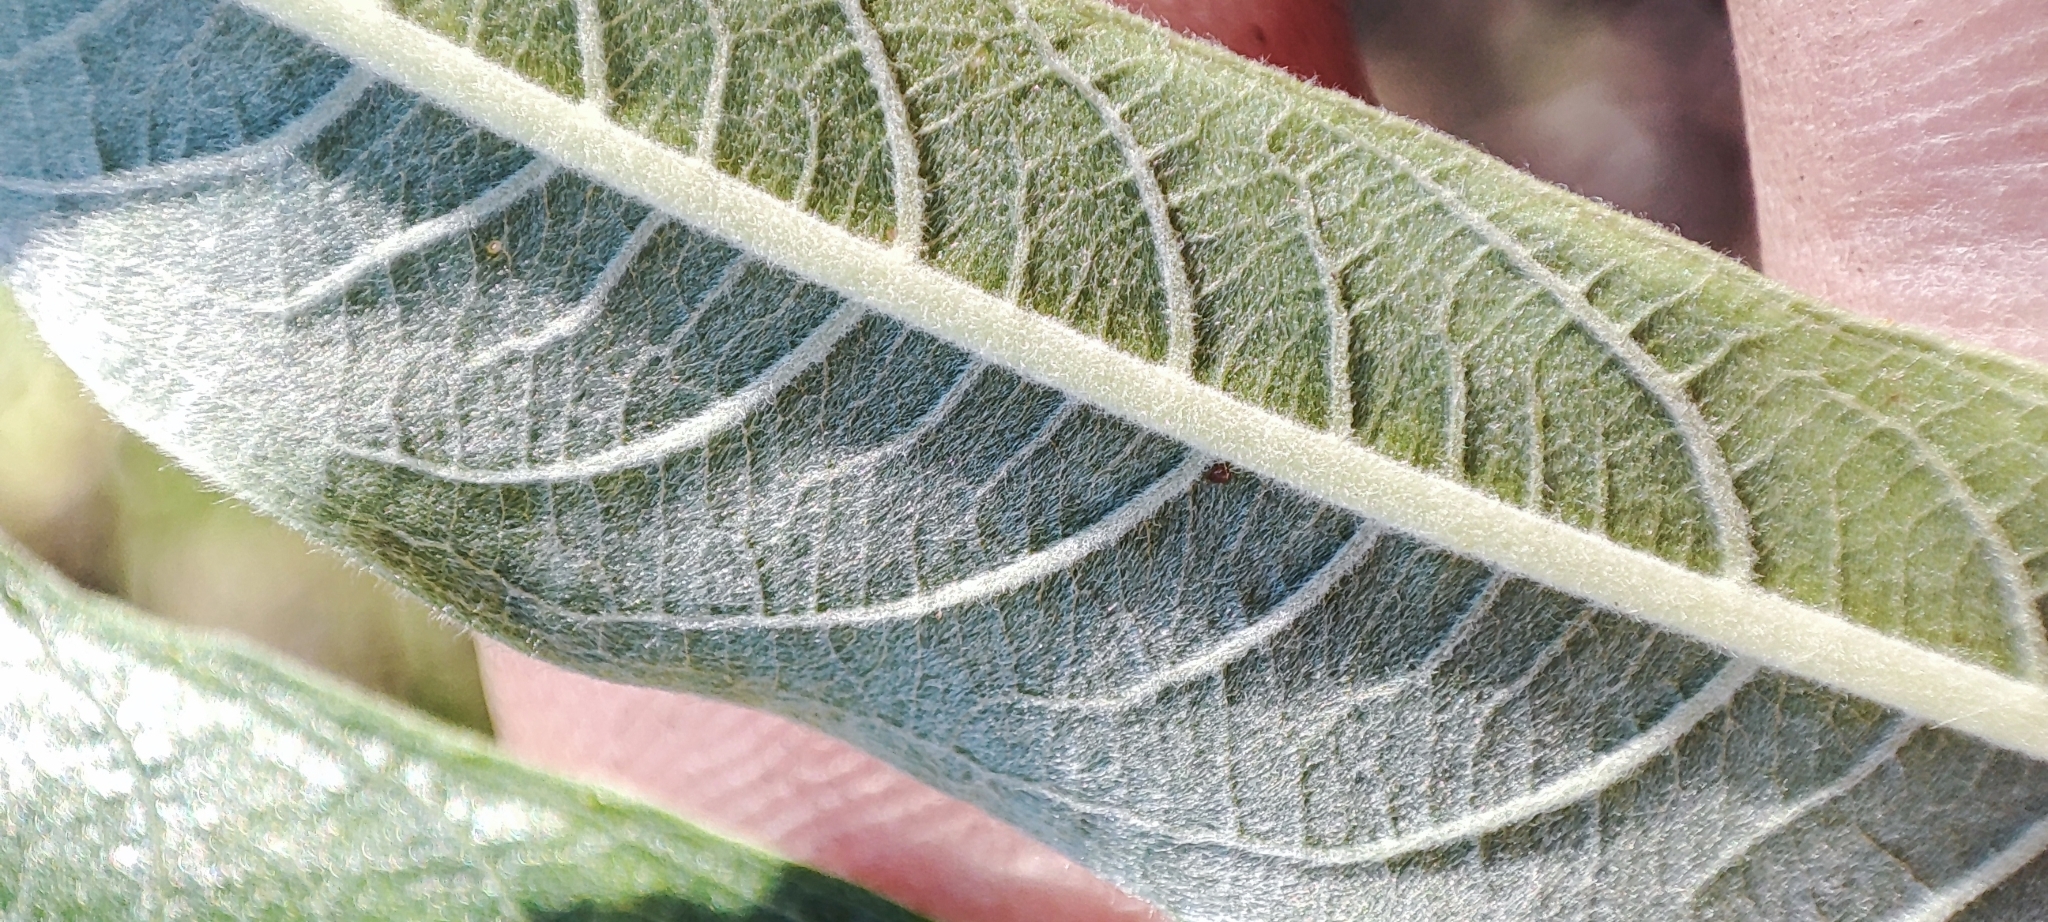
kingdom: Plantae
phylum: Tracheophyta
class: Magnoliopsida
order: Malpighiales
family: Salicaceae
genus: Salix
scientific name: Salix viminalis
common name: Osier
